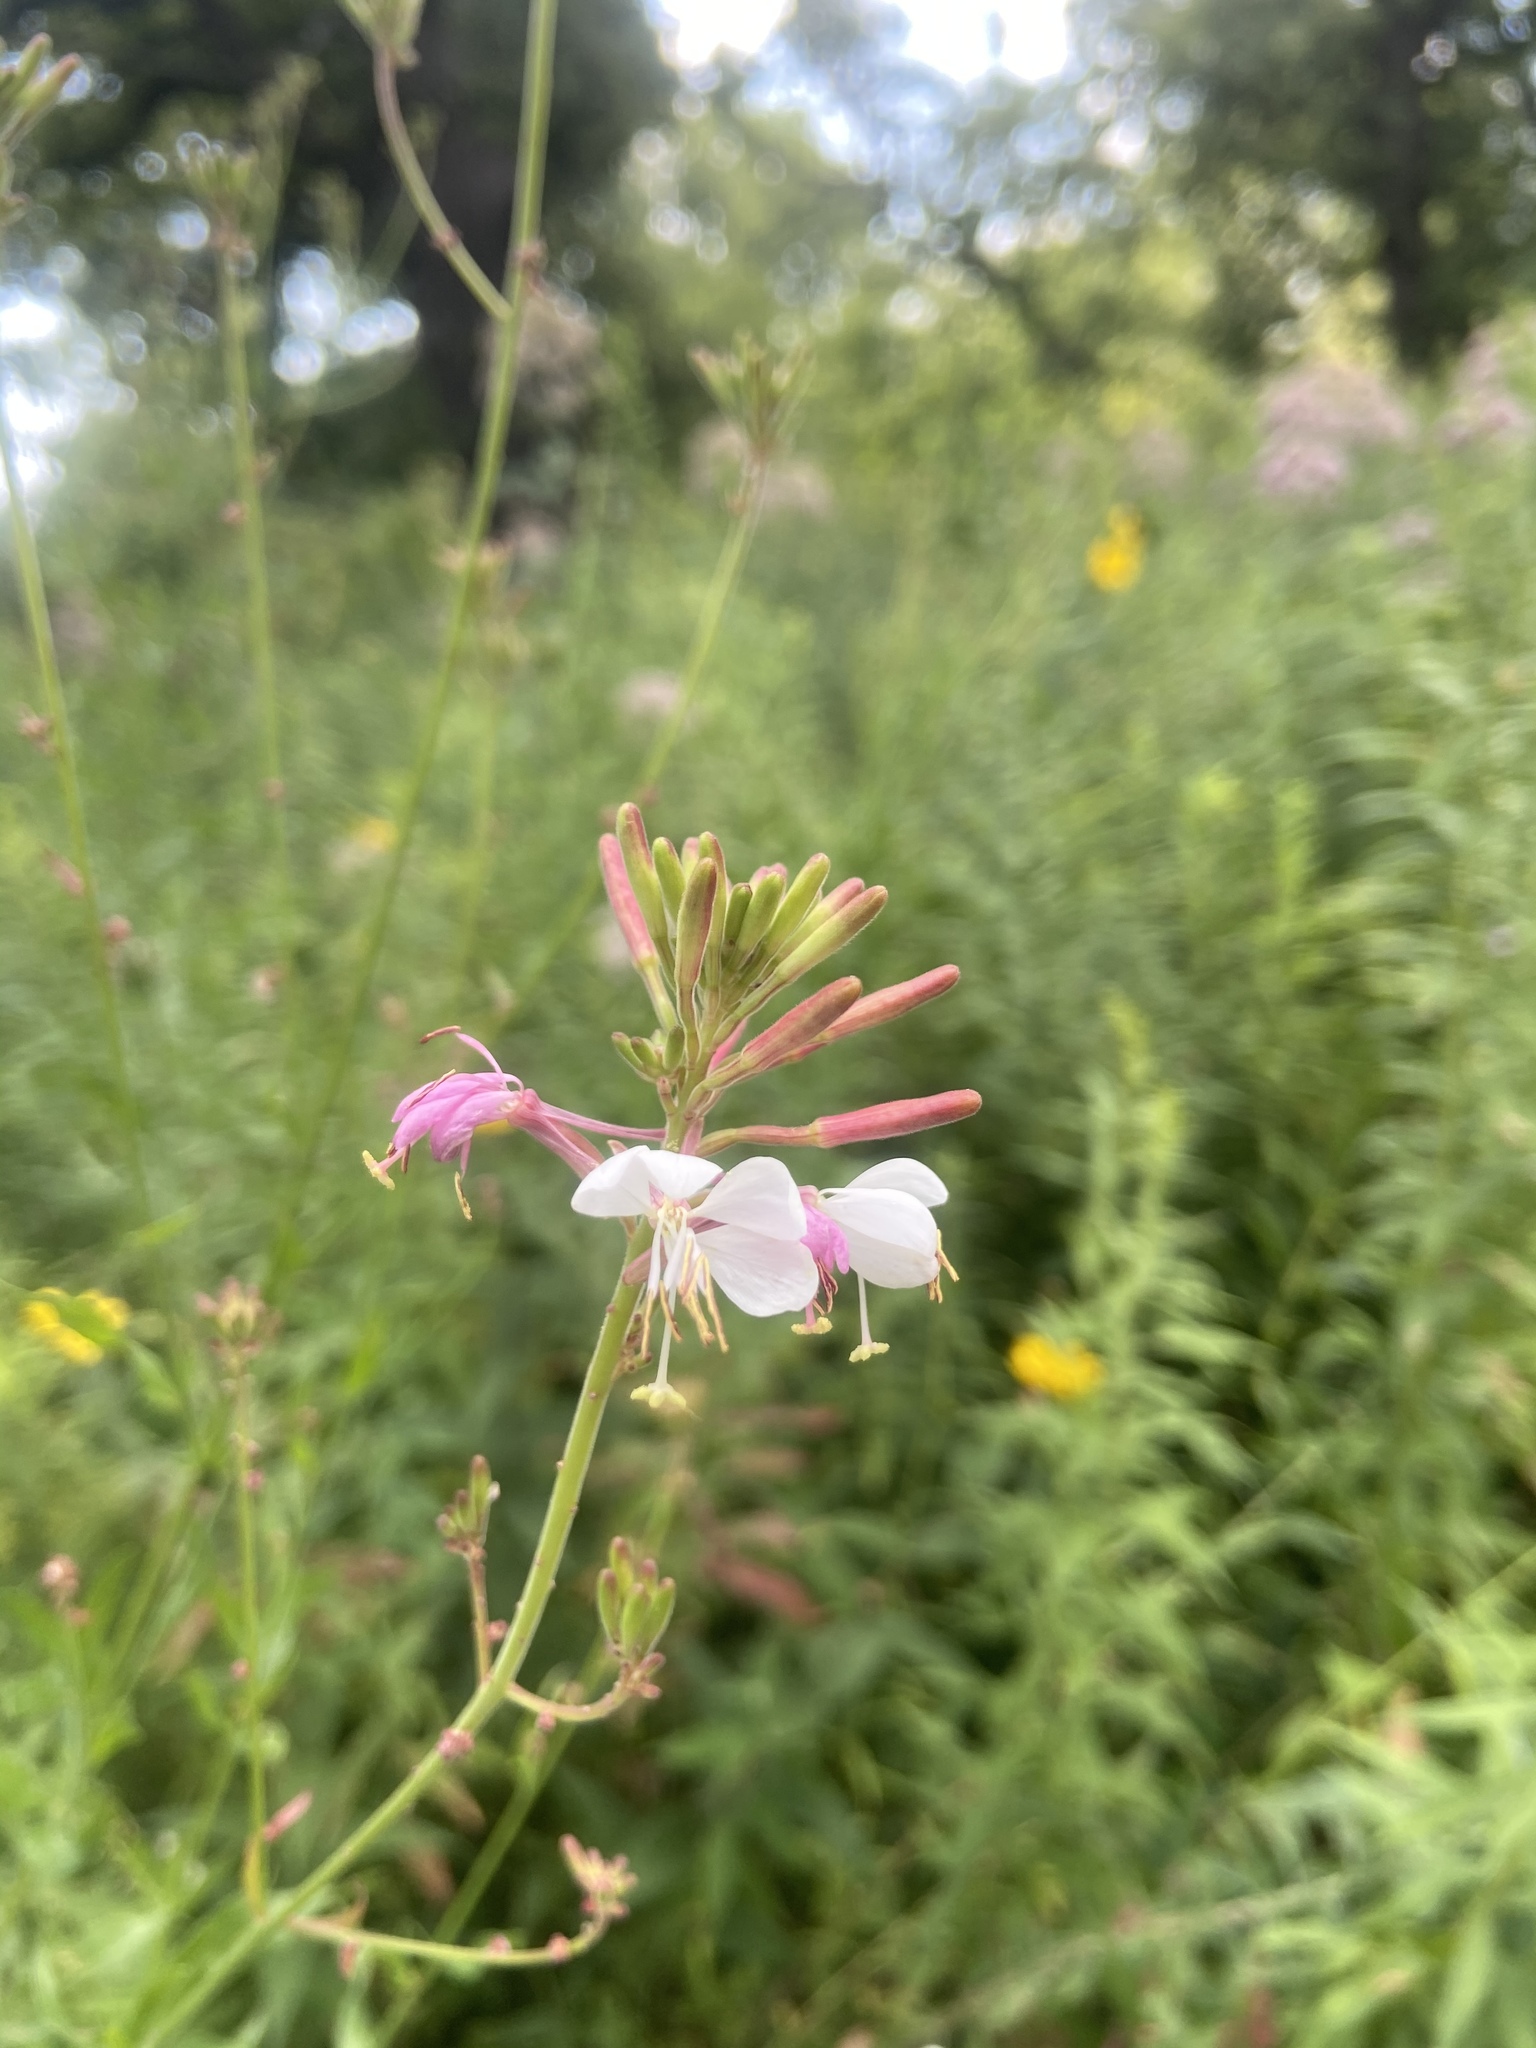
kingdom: Plantae
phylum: Tracheophyta
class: Magnoliopsida
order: Myrtales
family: Onagraceae
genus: Oenothera
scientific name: Oenothera gaura
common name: Biennial beeblossom
